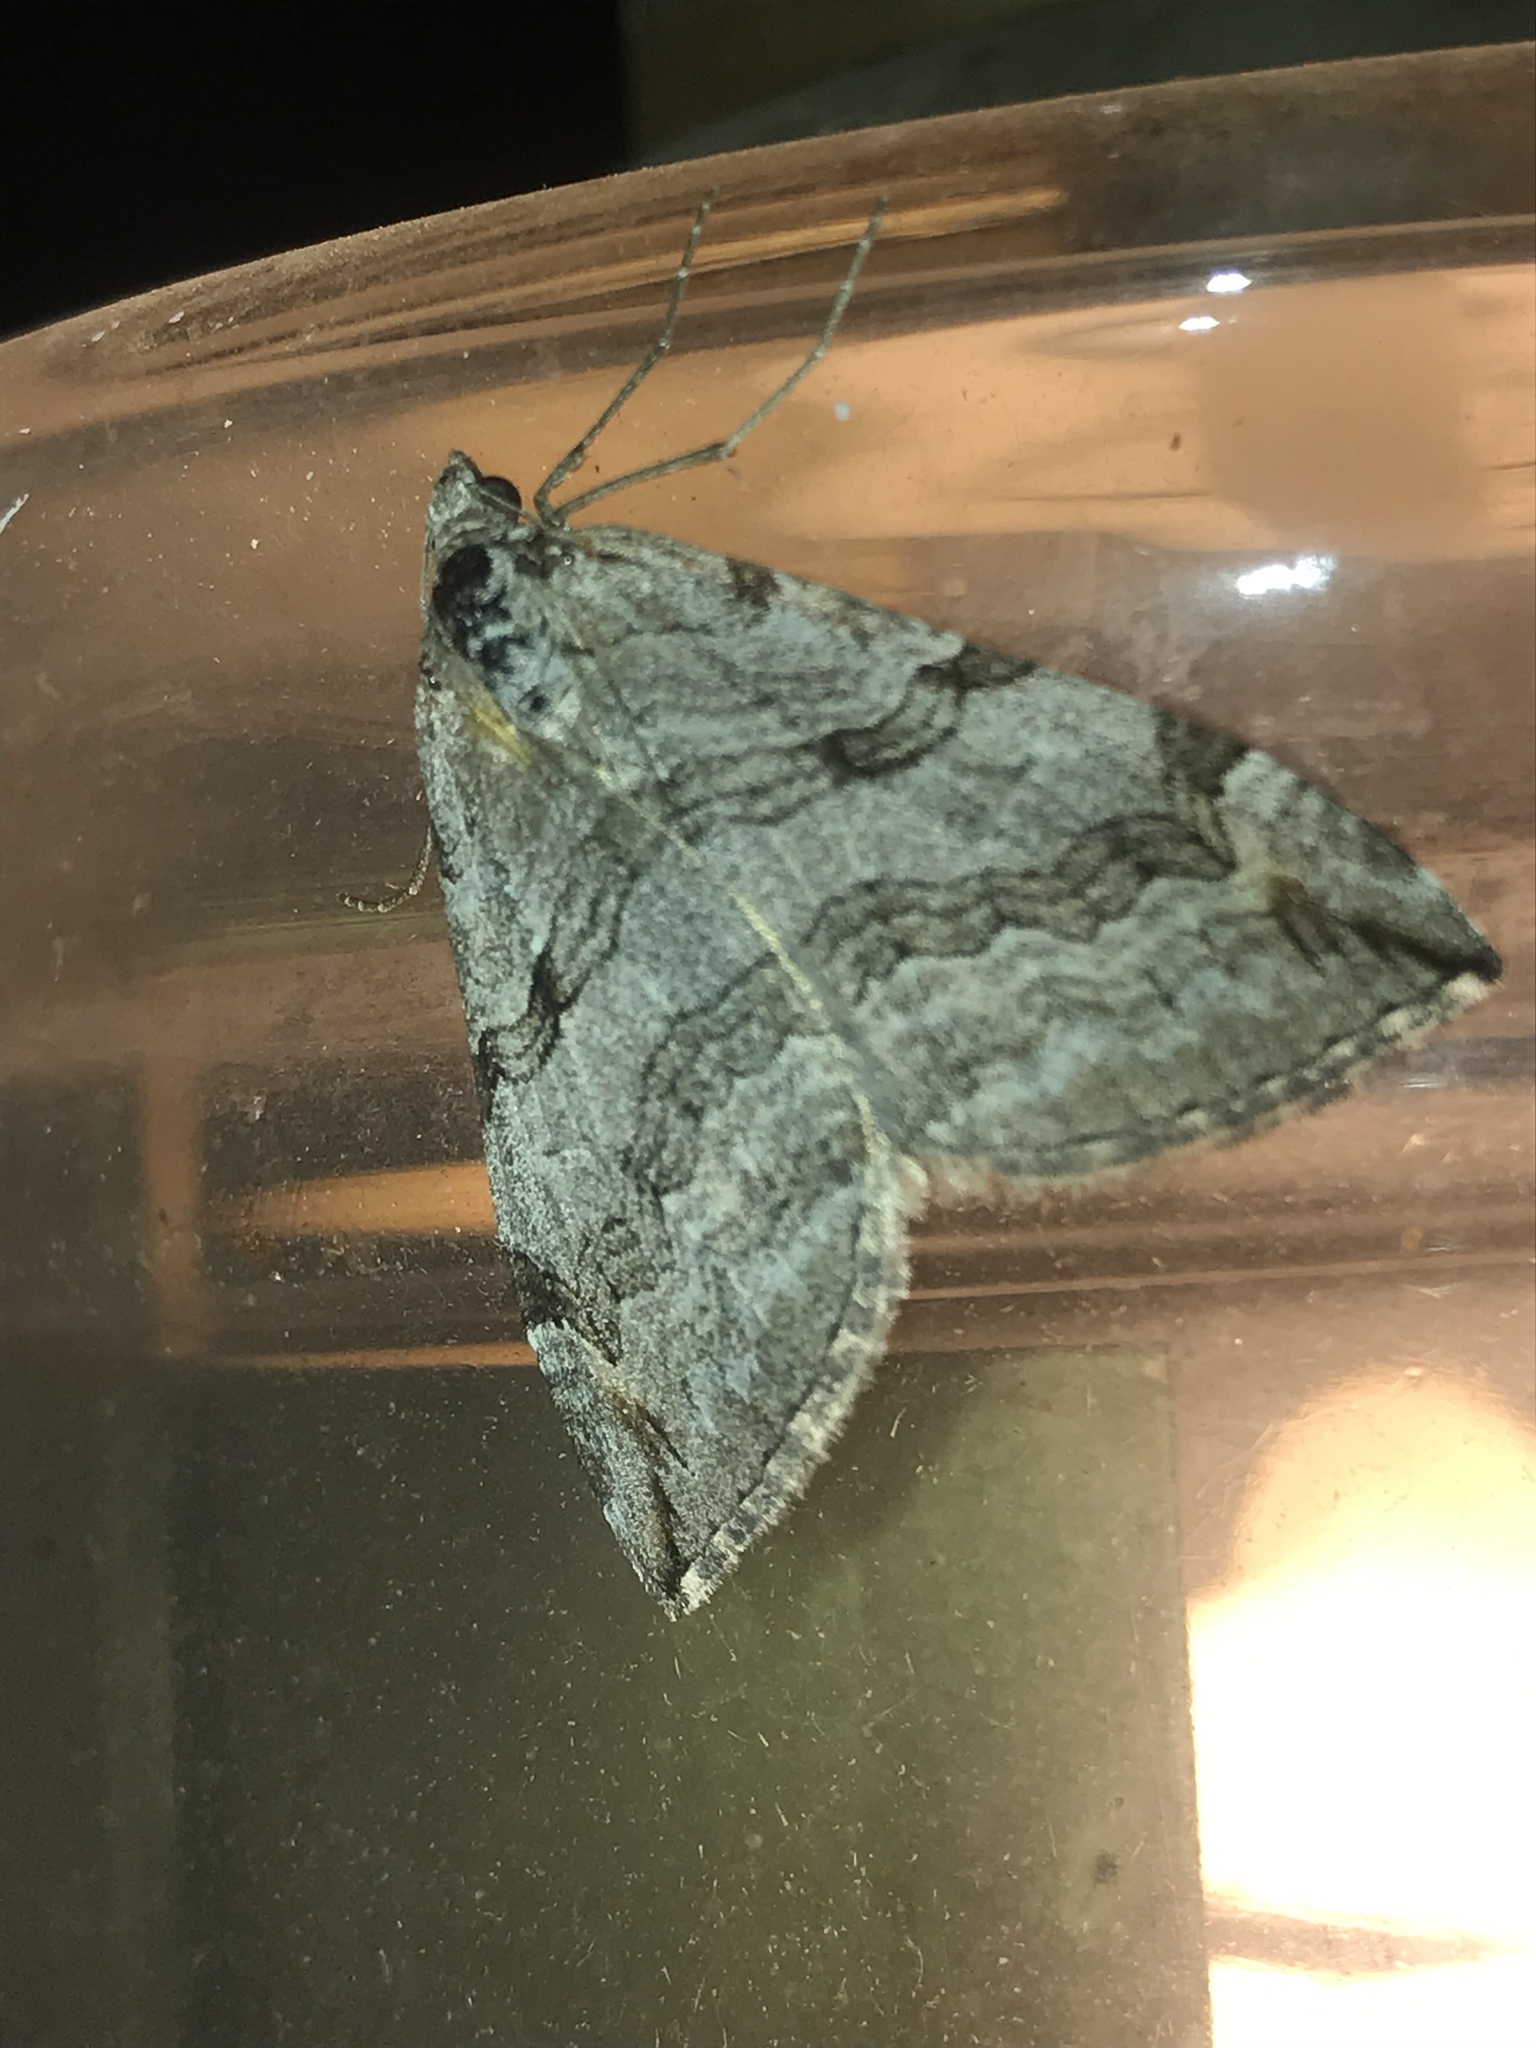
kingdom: Animalia
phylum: Arthropoda
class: Insecta
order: Lepidoptera
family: Geometridae
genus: Aplocera
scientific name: Aplocera plagiata
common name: Treble-bar
